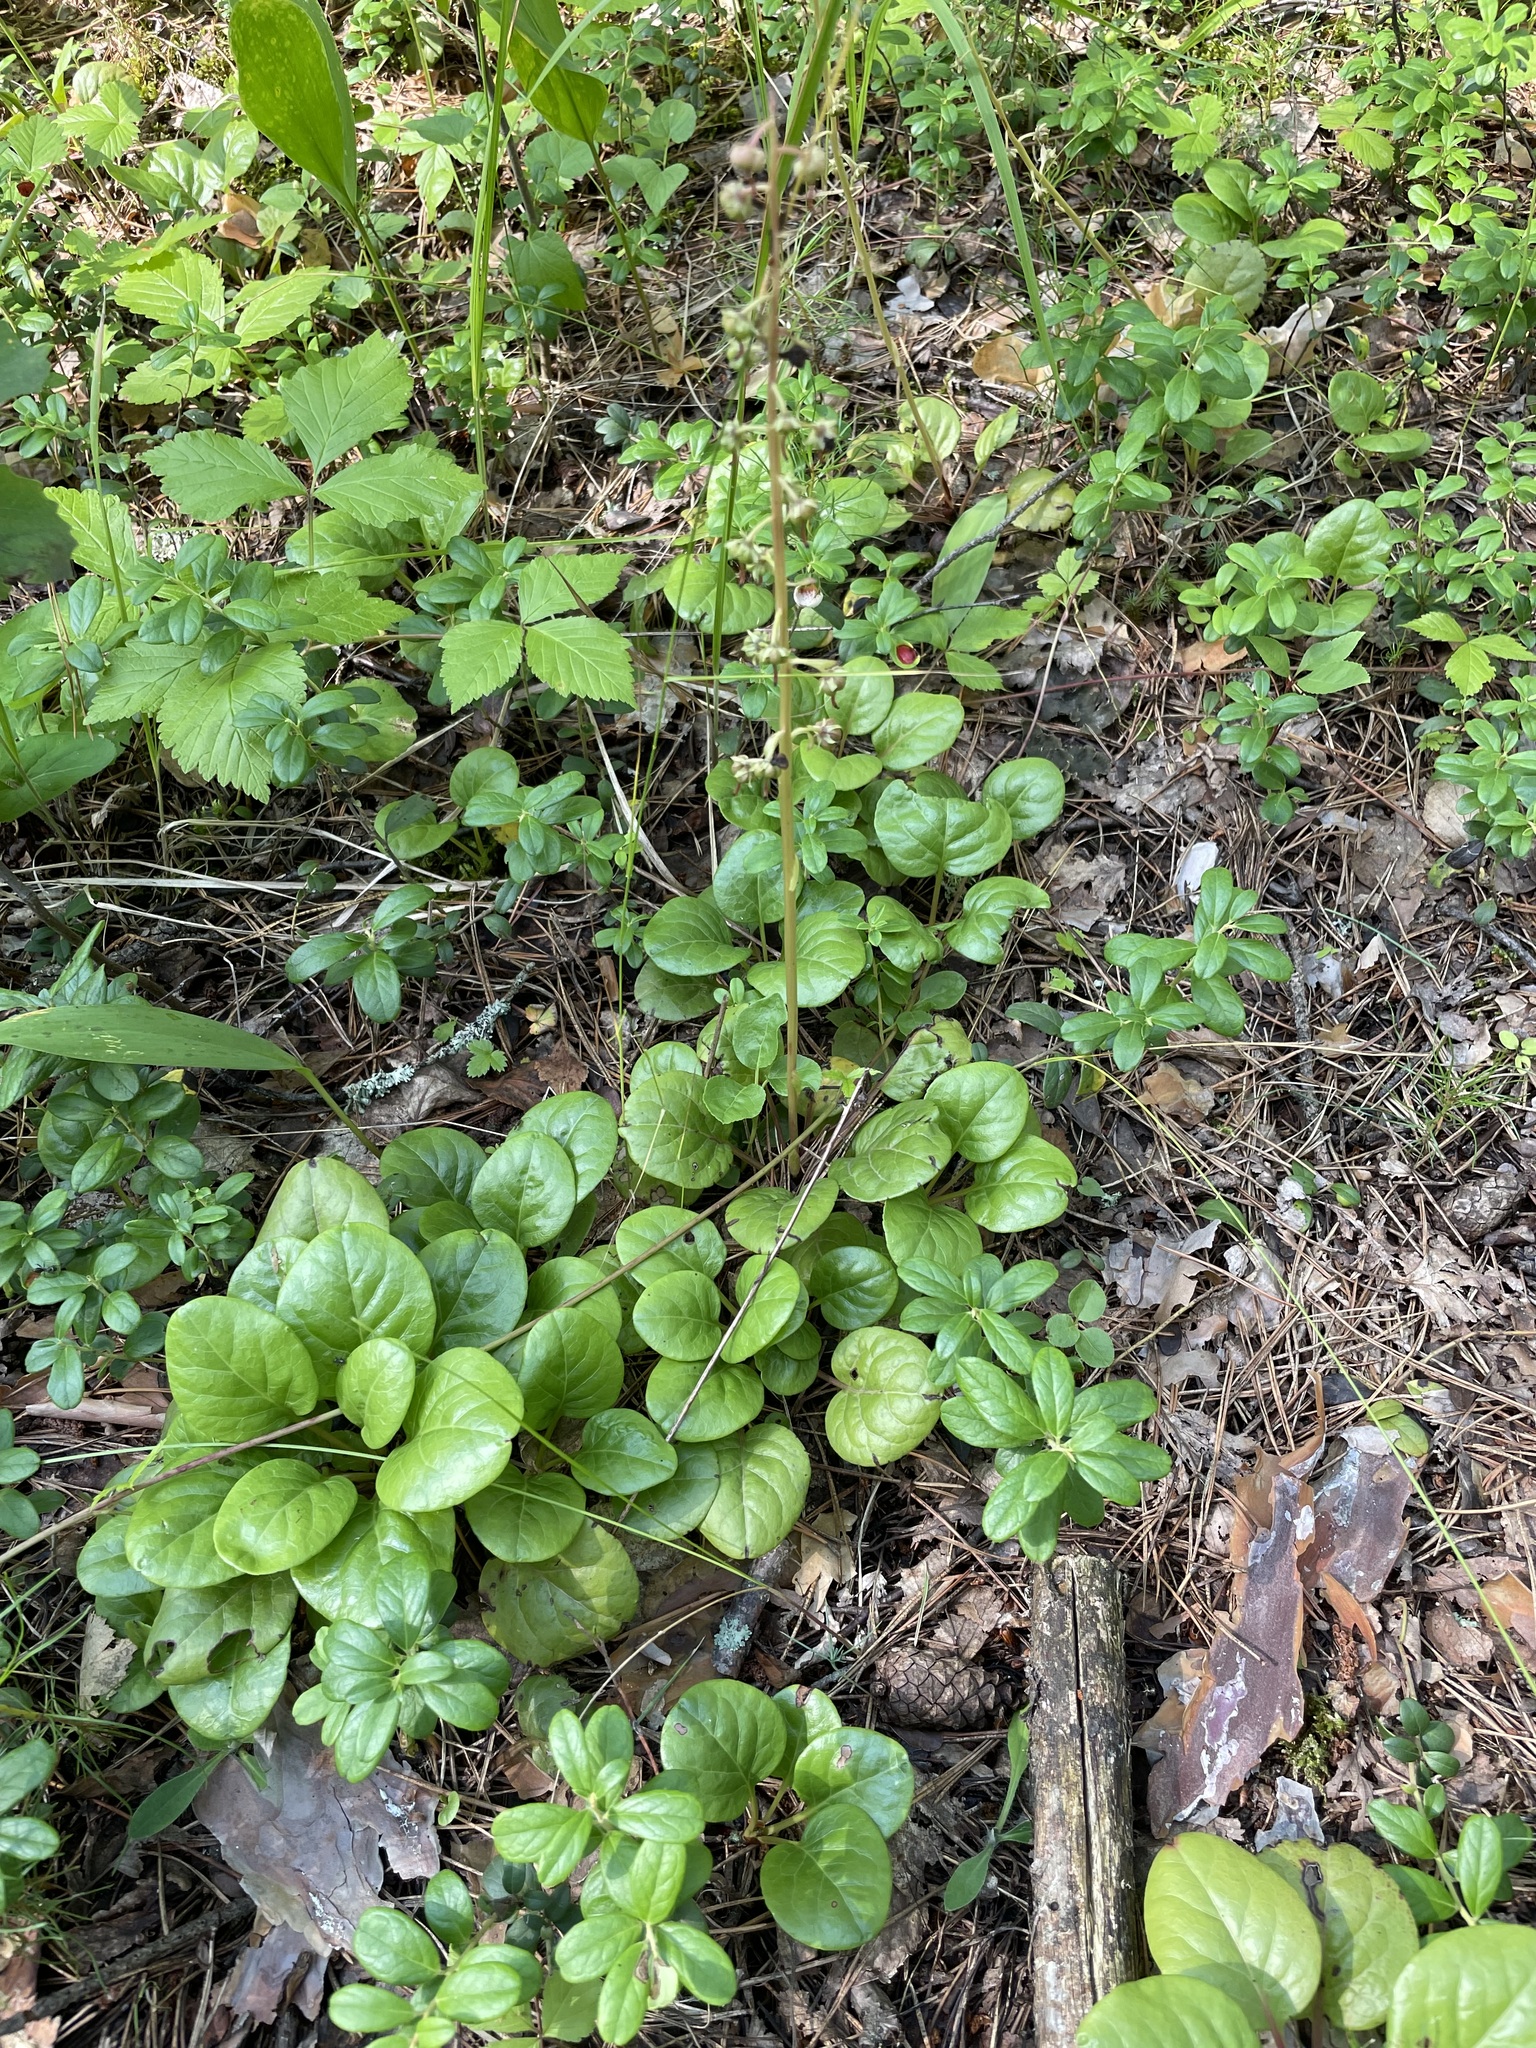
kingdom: Plantae
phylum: Tracheophyta
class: Magnoliopsida
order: Ericales
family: Ericaceae
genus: Pyrola
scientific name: Pyrola rotundifolia
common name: Round-leaved wintergreen
